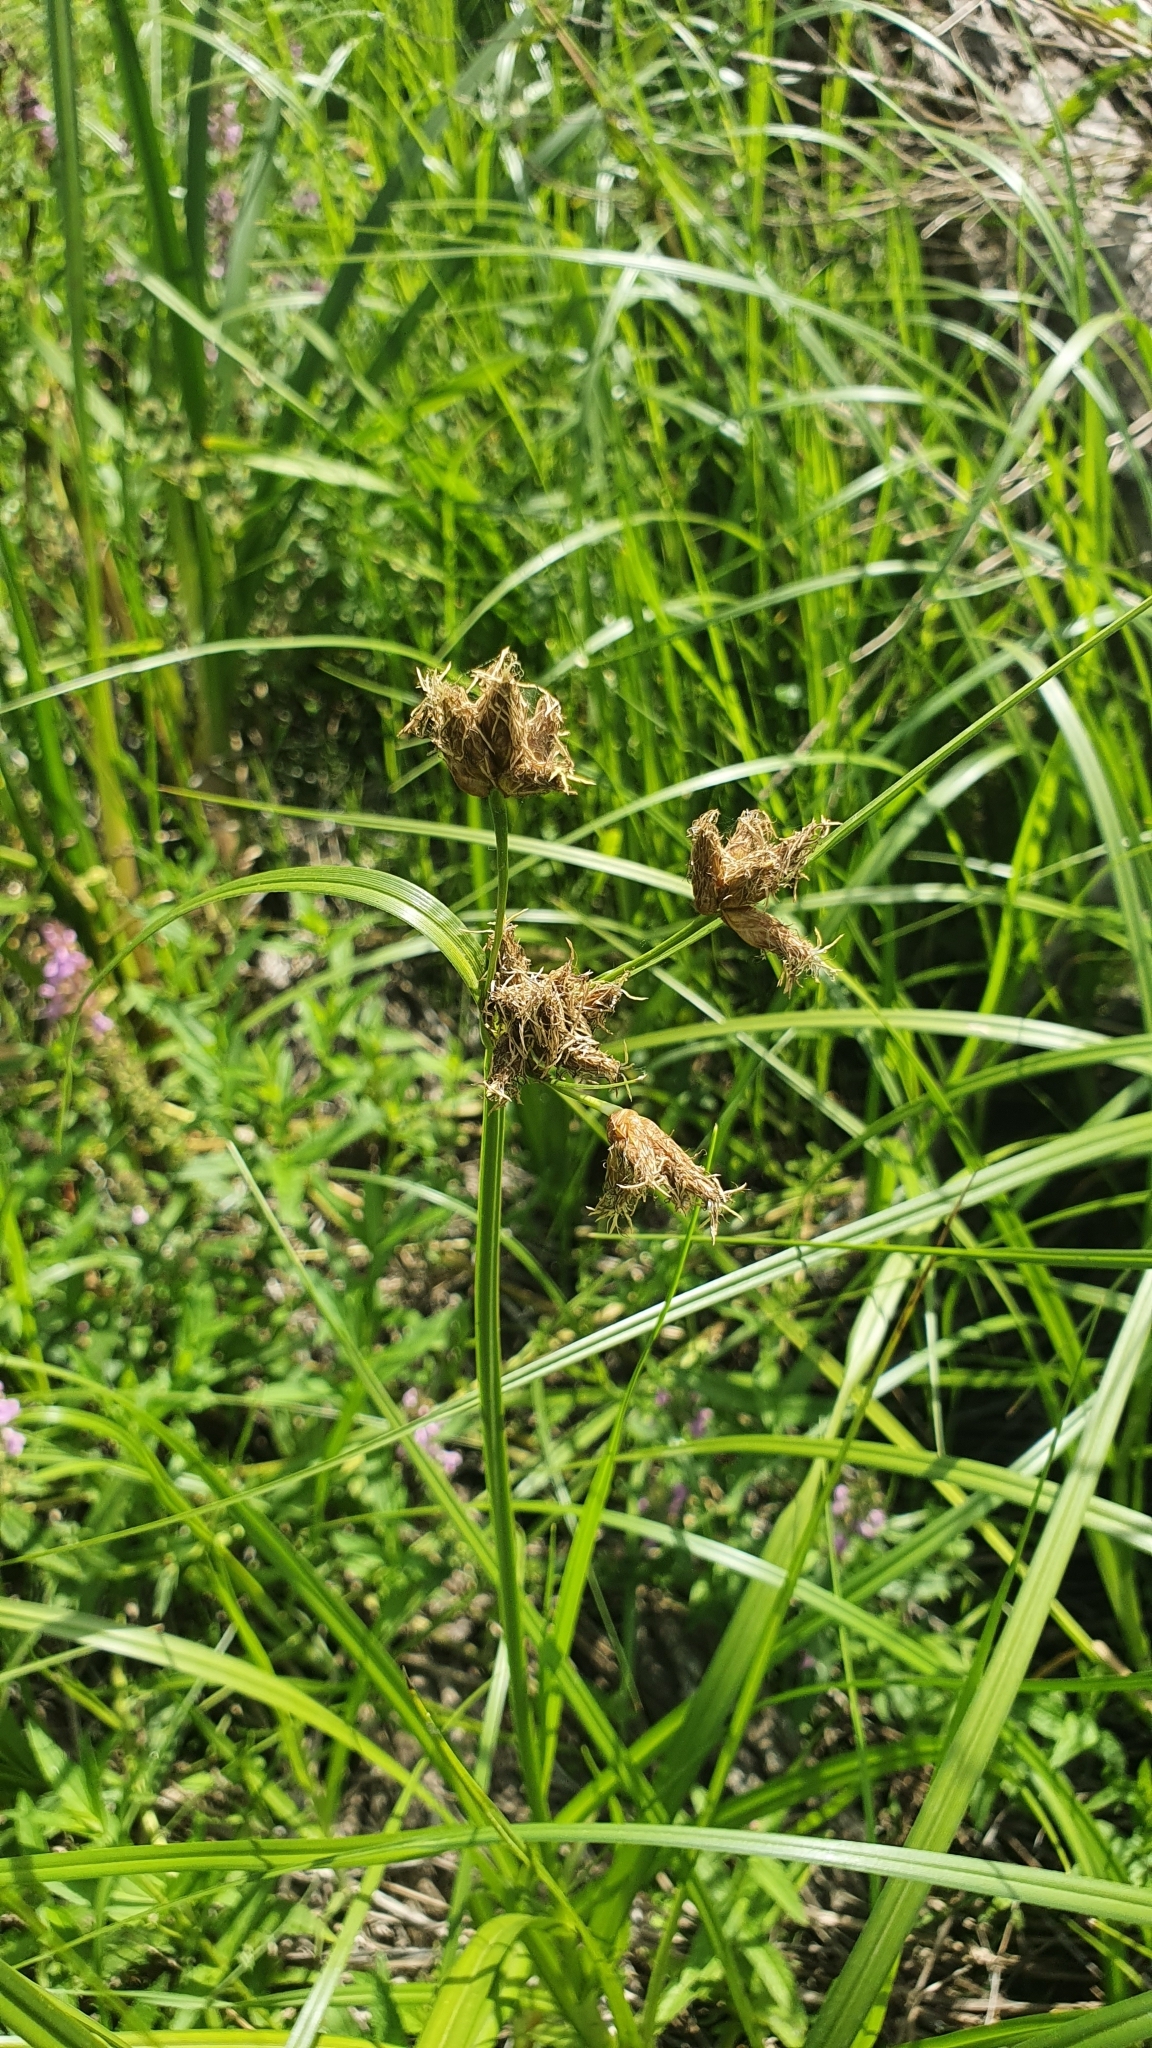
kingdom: Plantae
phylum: Tracheophyta
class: Liliopsida
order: Poales
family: Cyperaceae
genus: Bolboschoenus
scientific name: Bolboschoenus maritimus
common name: Sea club-rush
